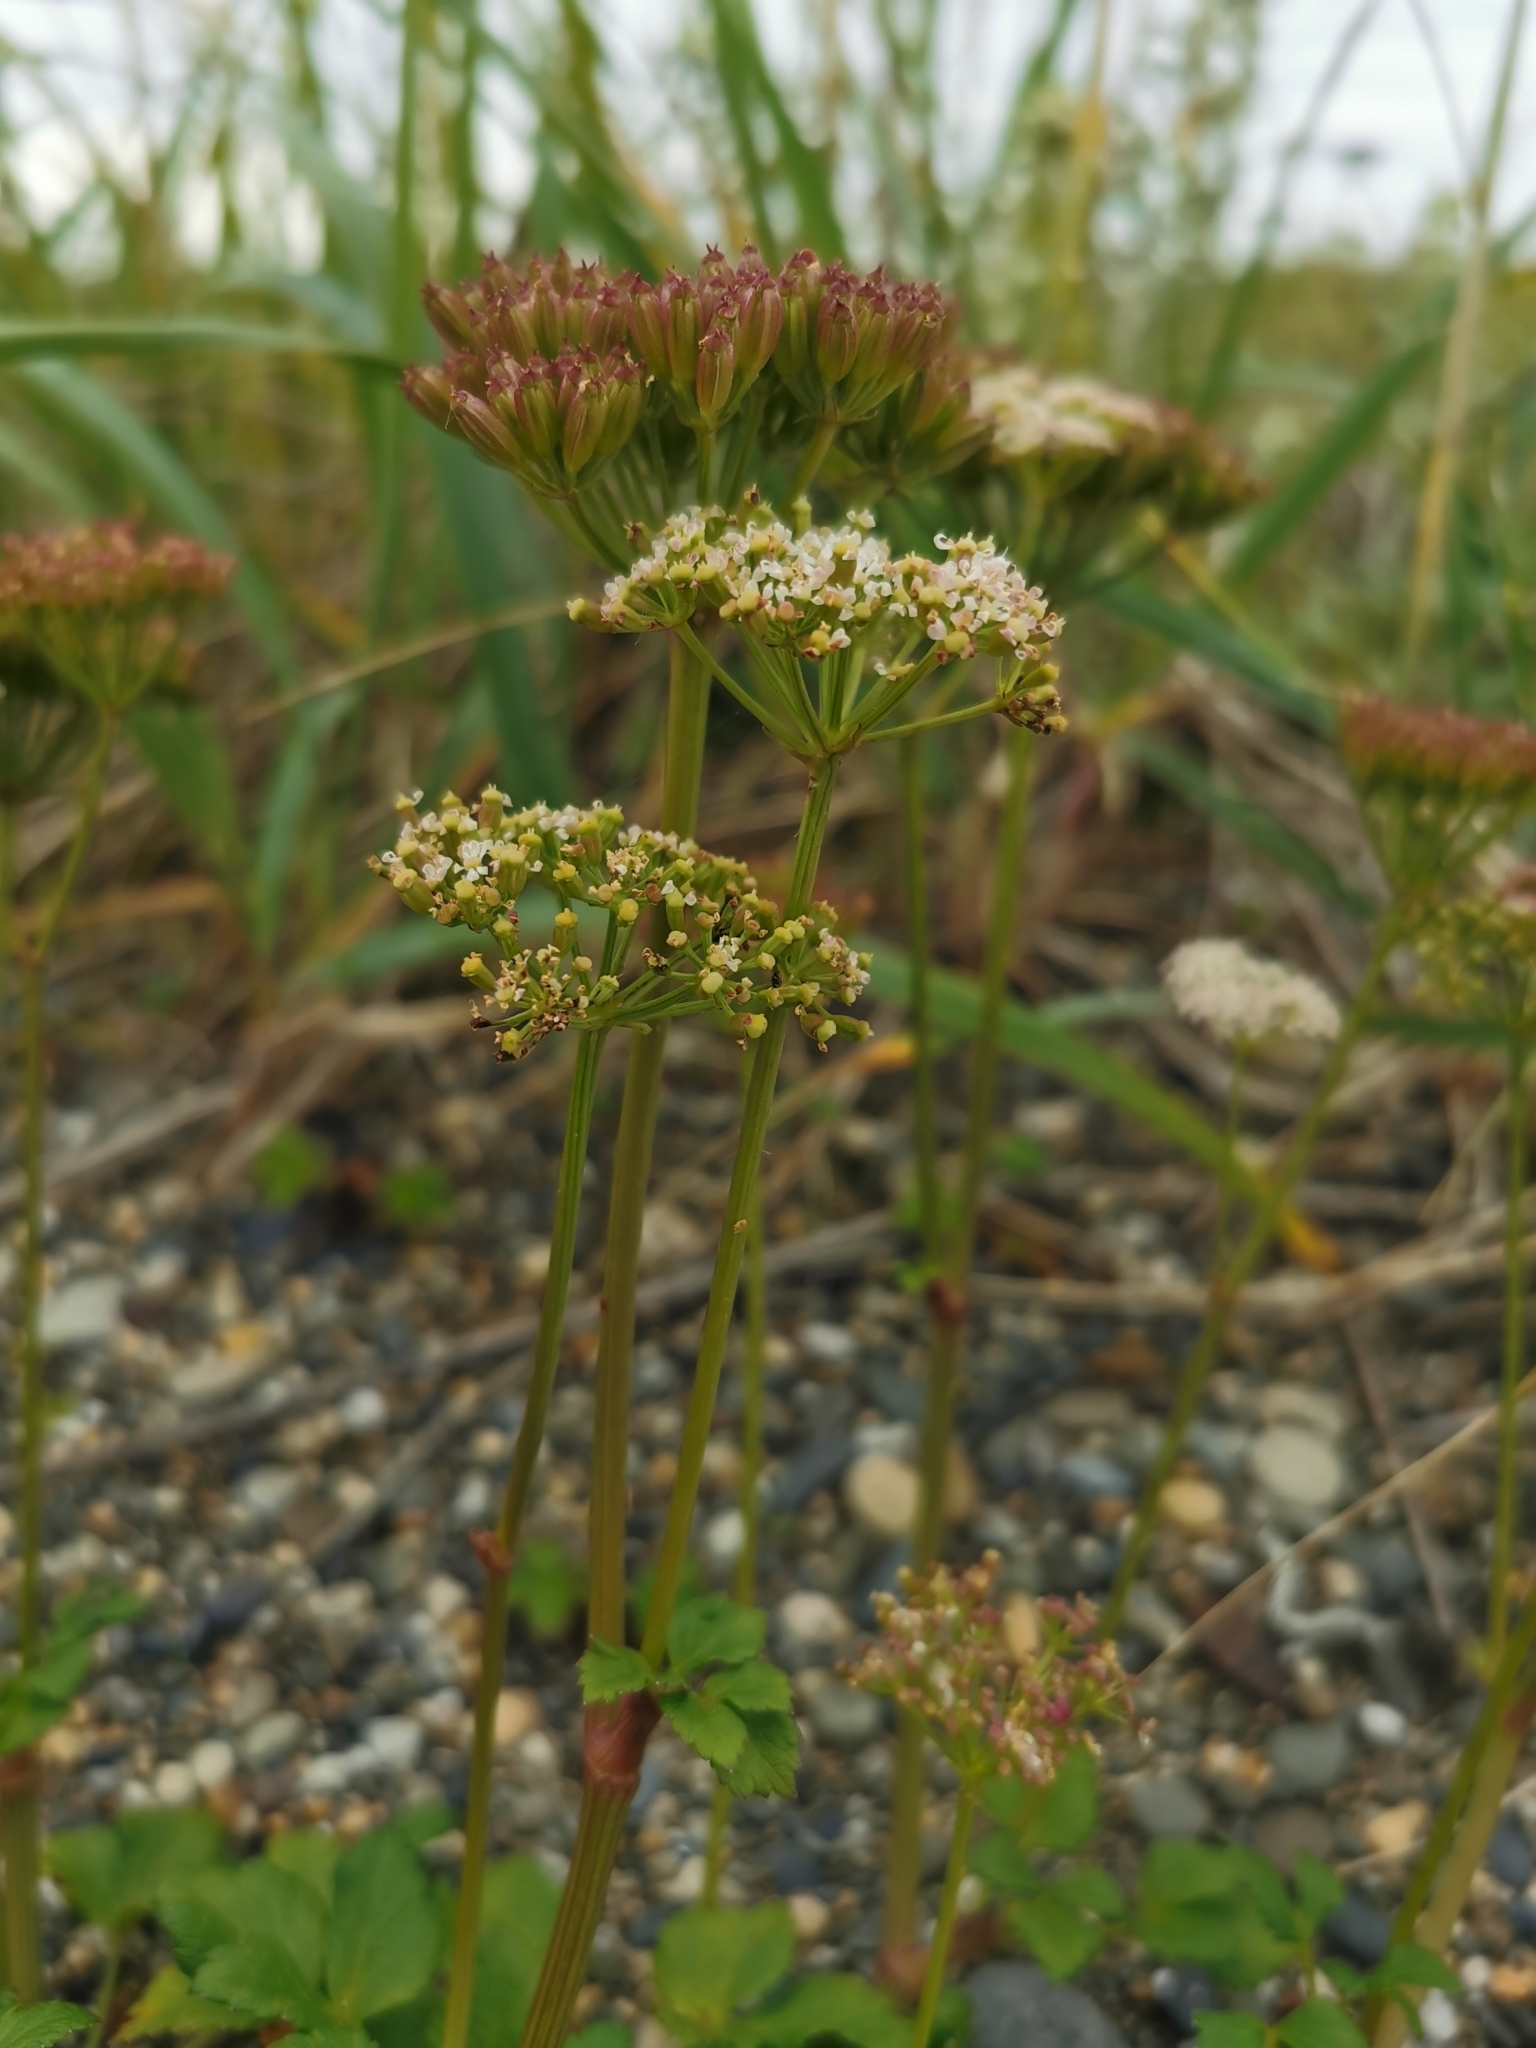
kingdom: Plantae
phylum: Tracheophyta
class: Magnoliopsida
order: Apiales
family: Apiaceae
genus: Ligusticum
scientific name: Ligusticum scothicum
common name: Beach lovage
